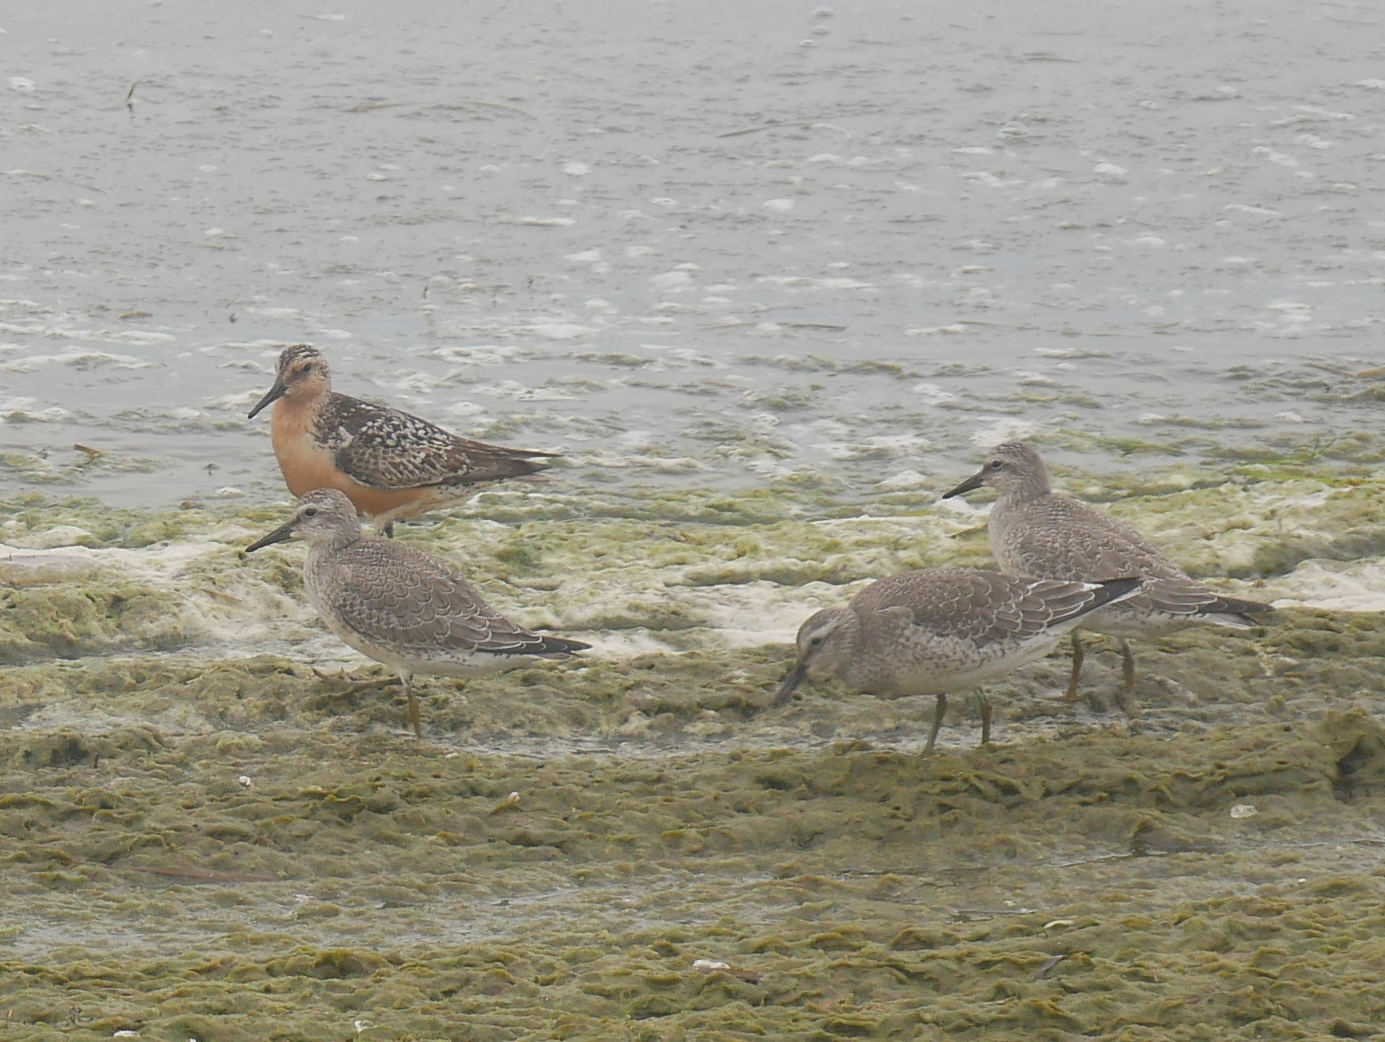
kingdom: Animalia
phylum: Chordata
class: Aves
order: Charadriiformes
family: Scolopacidae
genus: Calidris
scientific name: Calidris canutus
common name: Red knot
